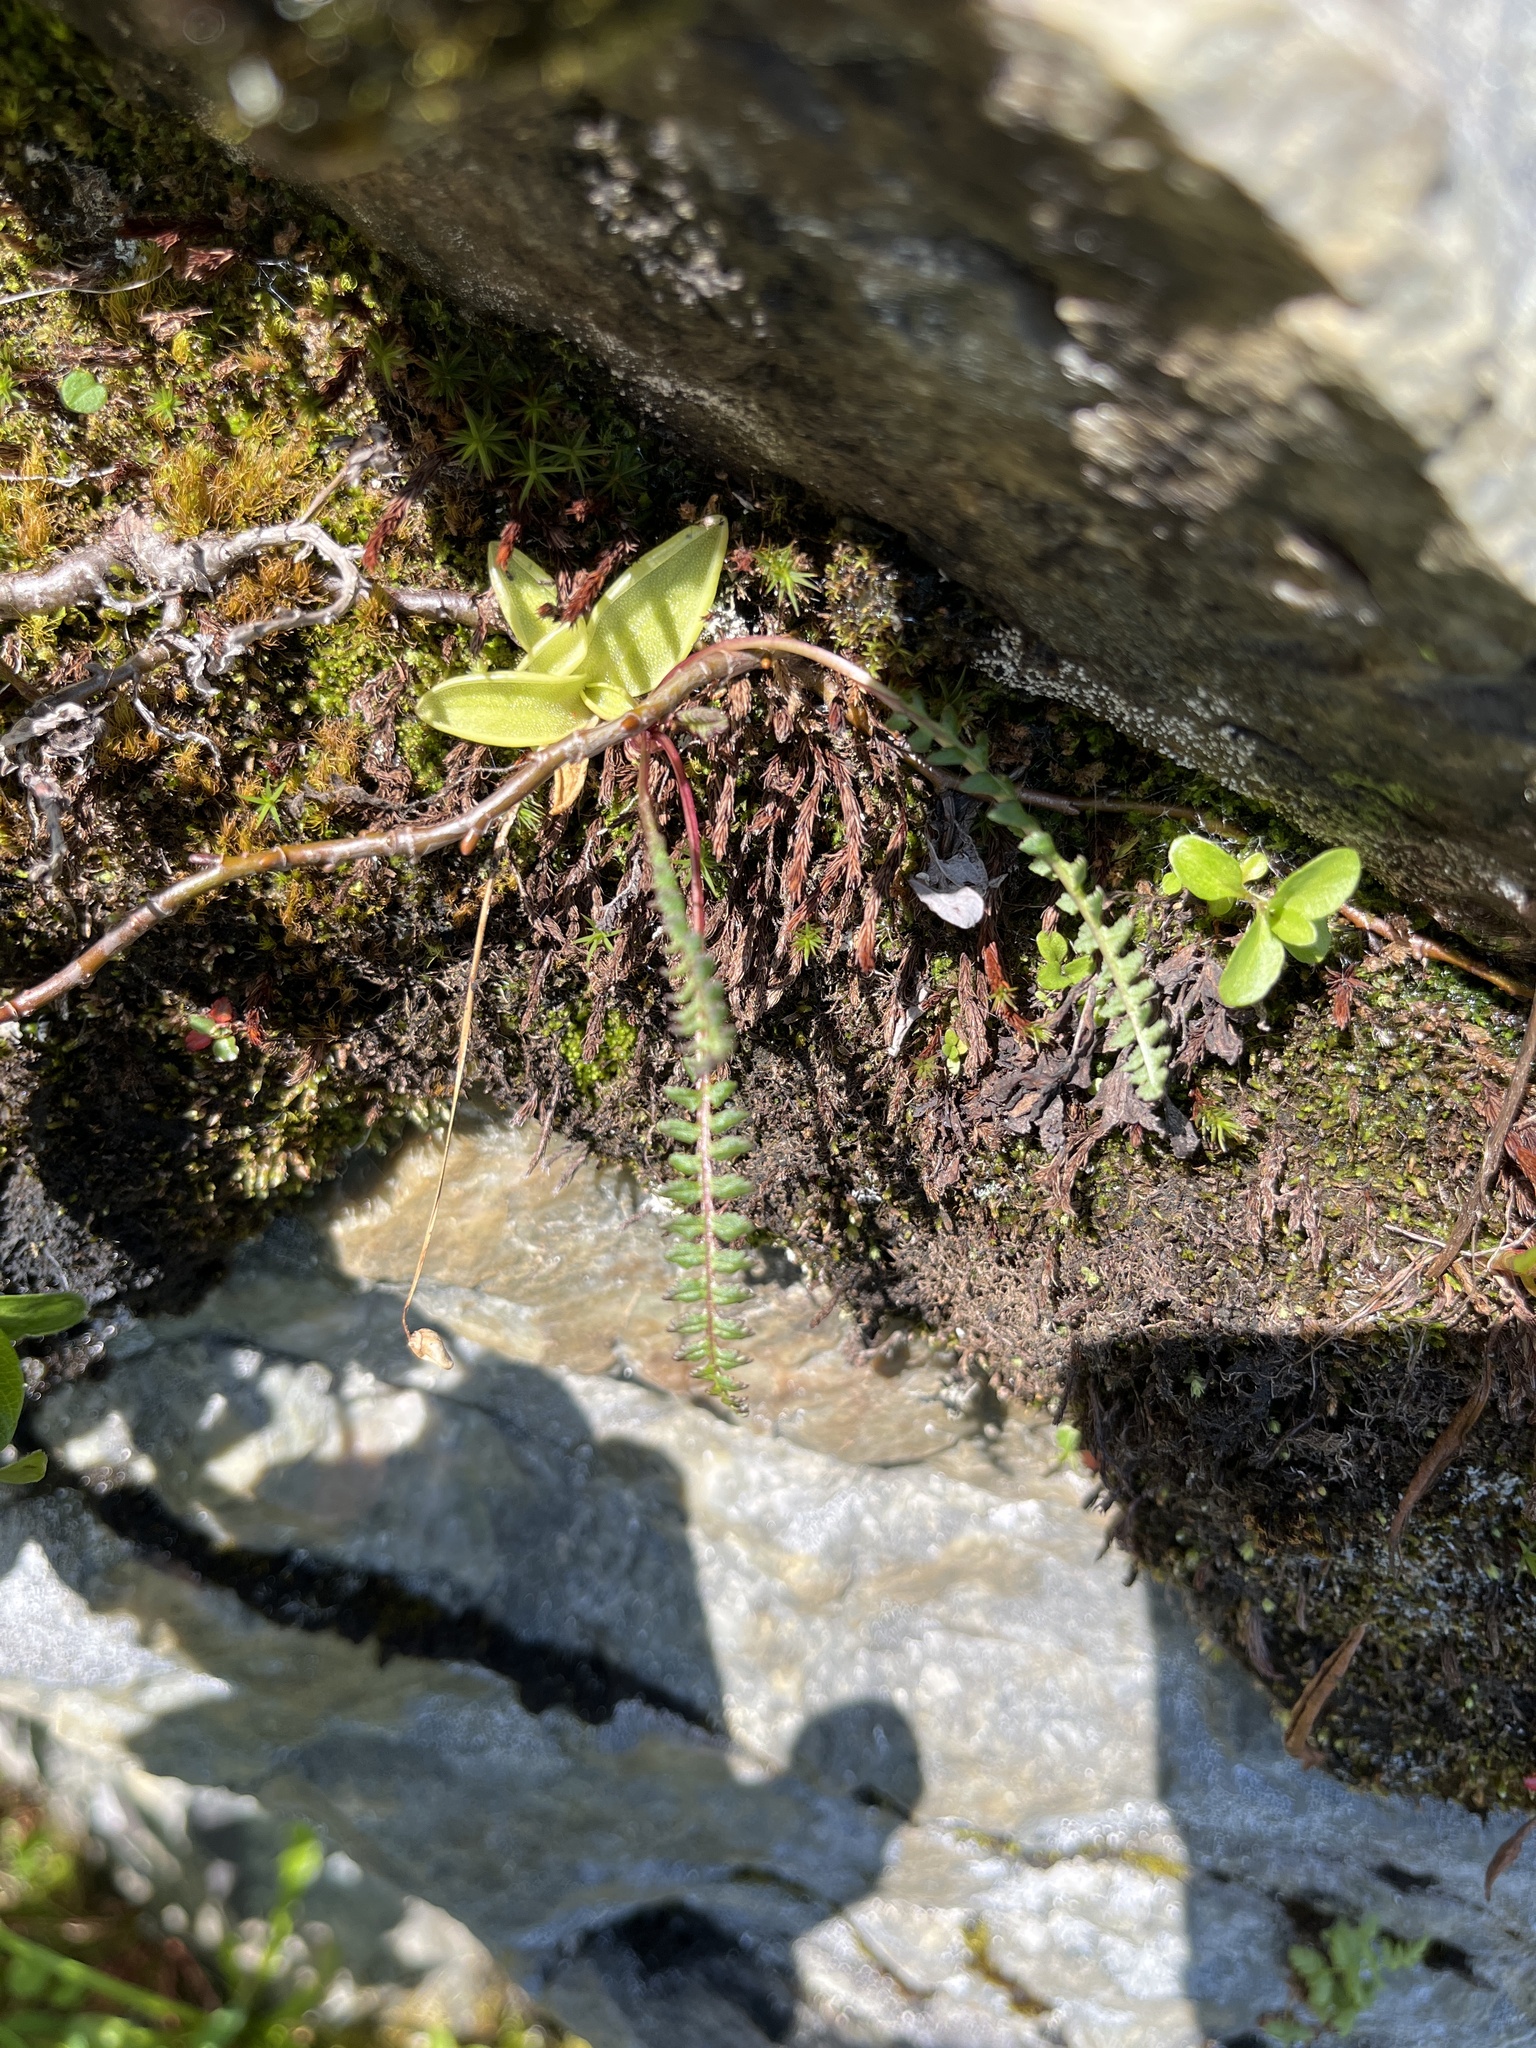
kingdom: Plantae
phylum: Tracheophyta
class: Magnoliopsida
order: Lamiales
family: Orobanchaceae
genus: Pedicularis
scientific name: Pedicularis flammea
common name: Flame-coloured lousewort
